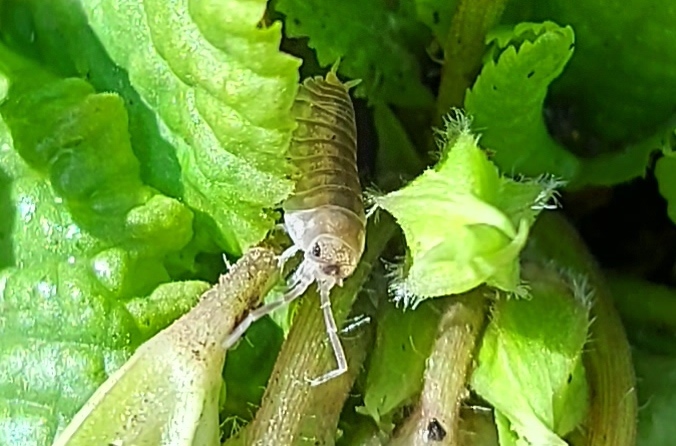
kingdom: Animalia
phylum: Arthropoda
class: Malacostraca
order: Isopoda
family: Cylisticidae
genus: Cylisticus
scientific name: Cylisticus convexus
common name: Curly woodlouse
